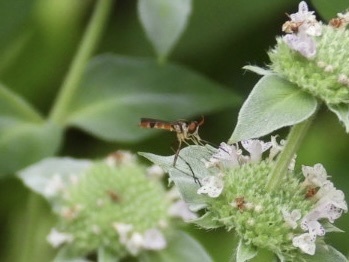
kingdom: Animalia
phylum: Arthropoda
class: Insecta
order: Diptera
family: Conopidae
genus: Stylogaster
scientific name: Stylogaster neglecta
